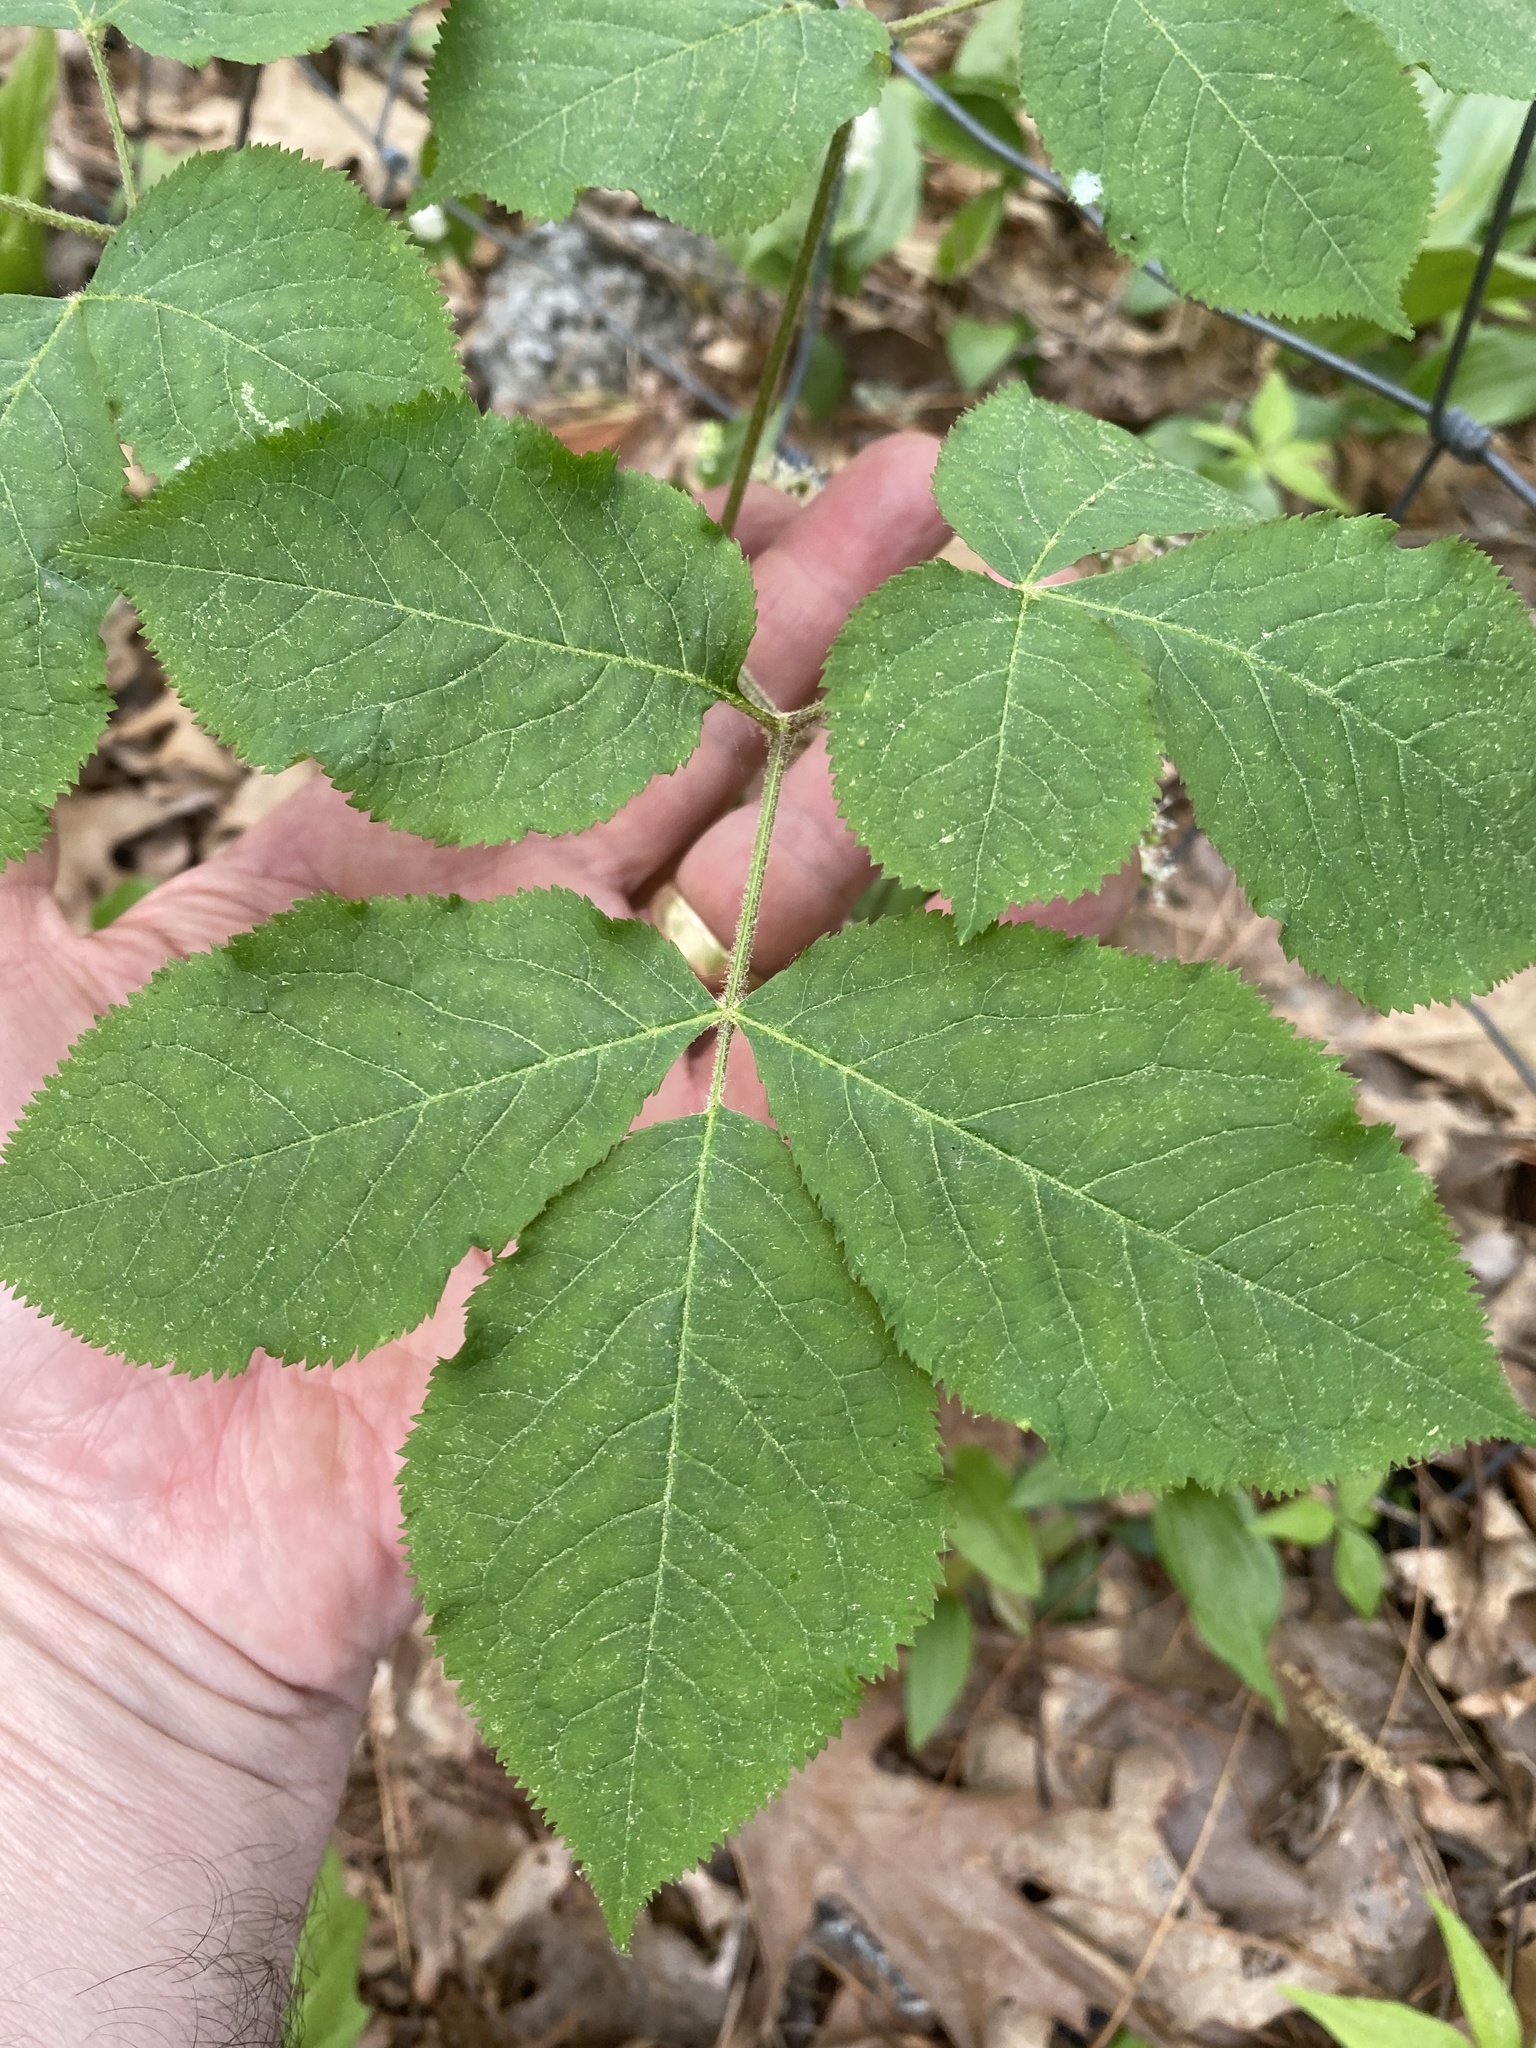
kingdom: Plantae
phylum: Tracheophyta
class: Magnoliopsida
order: Apiales
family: Araliaceae
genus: Aralia
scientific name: Aralia nudicaulis
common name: Wild sarsaparilla
